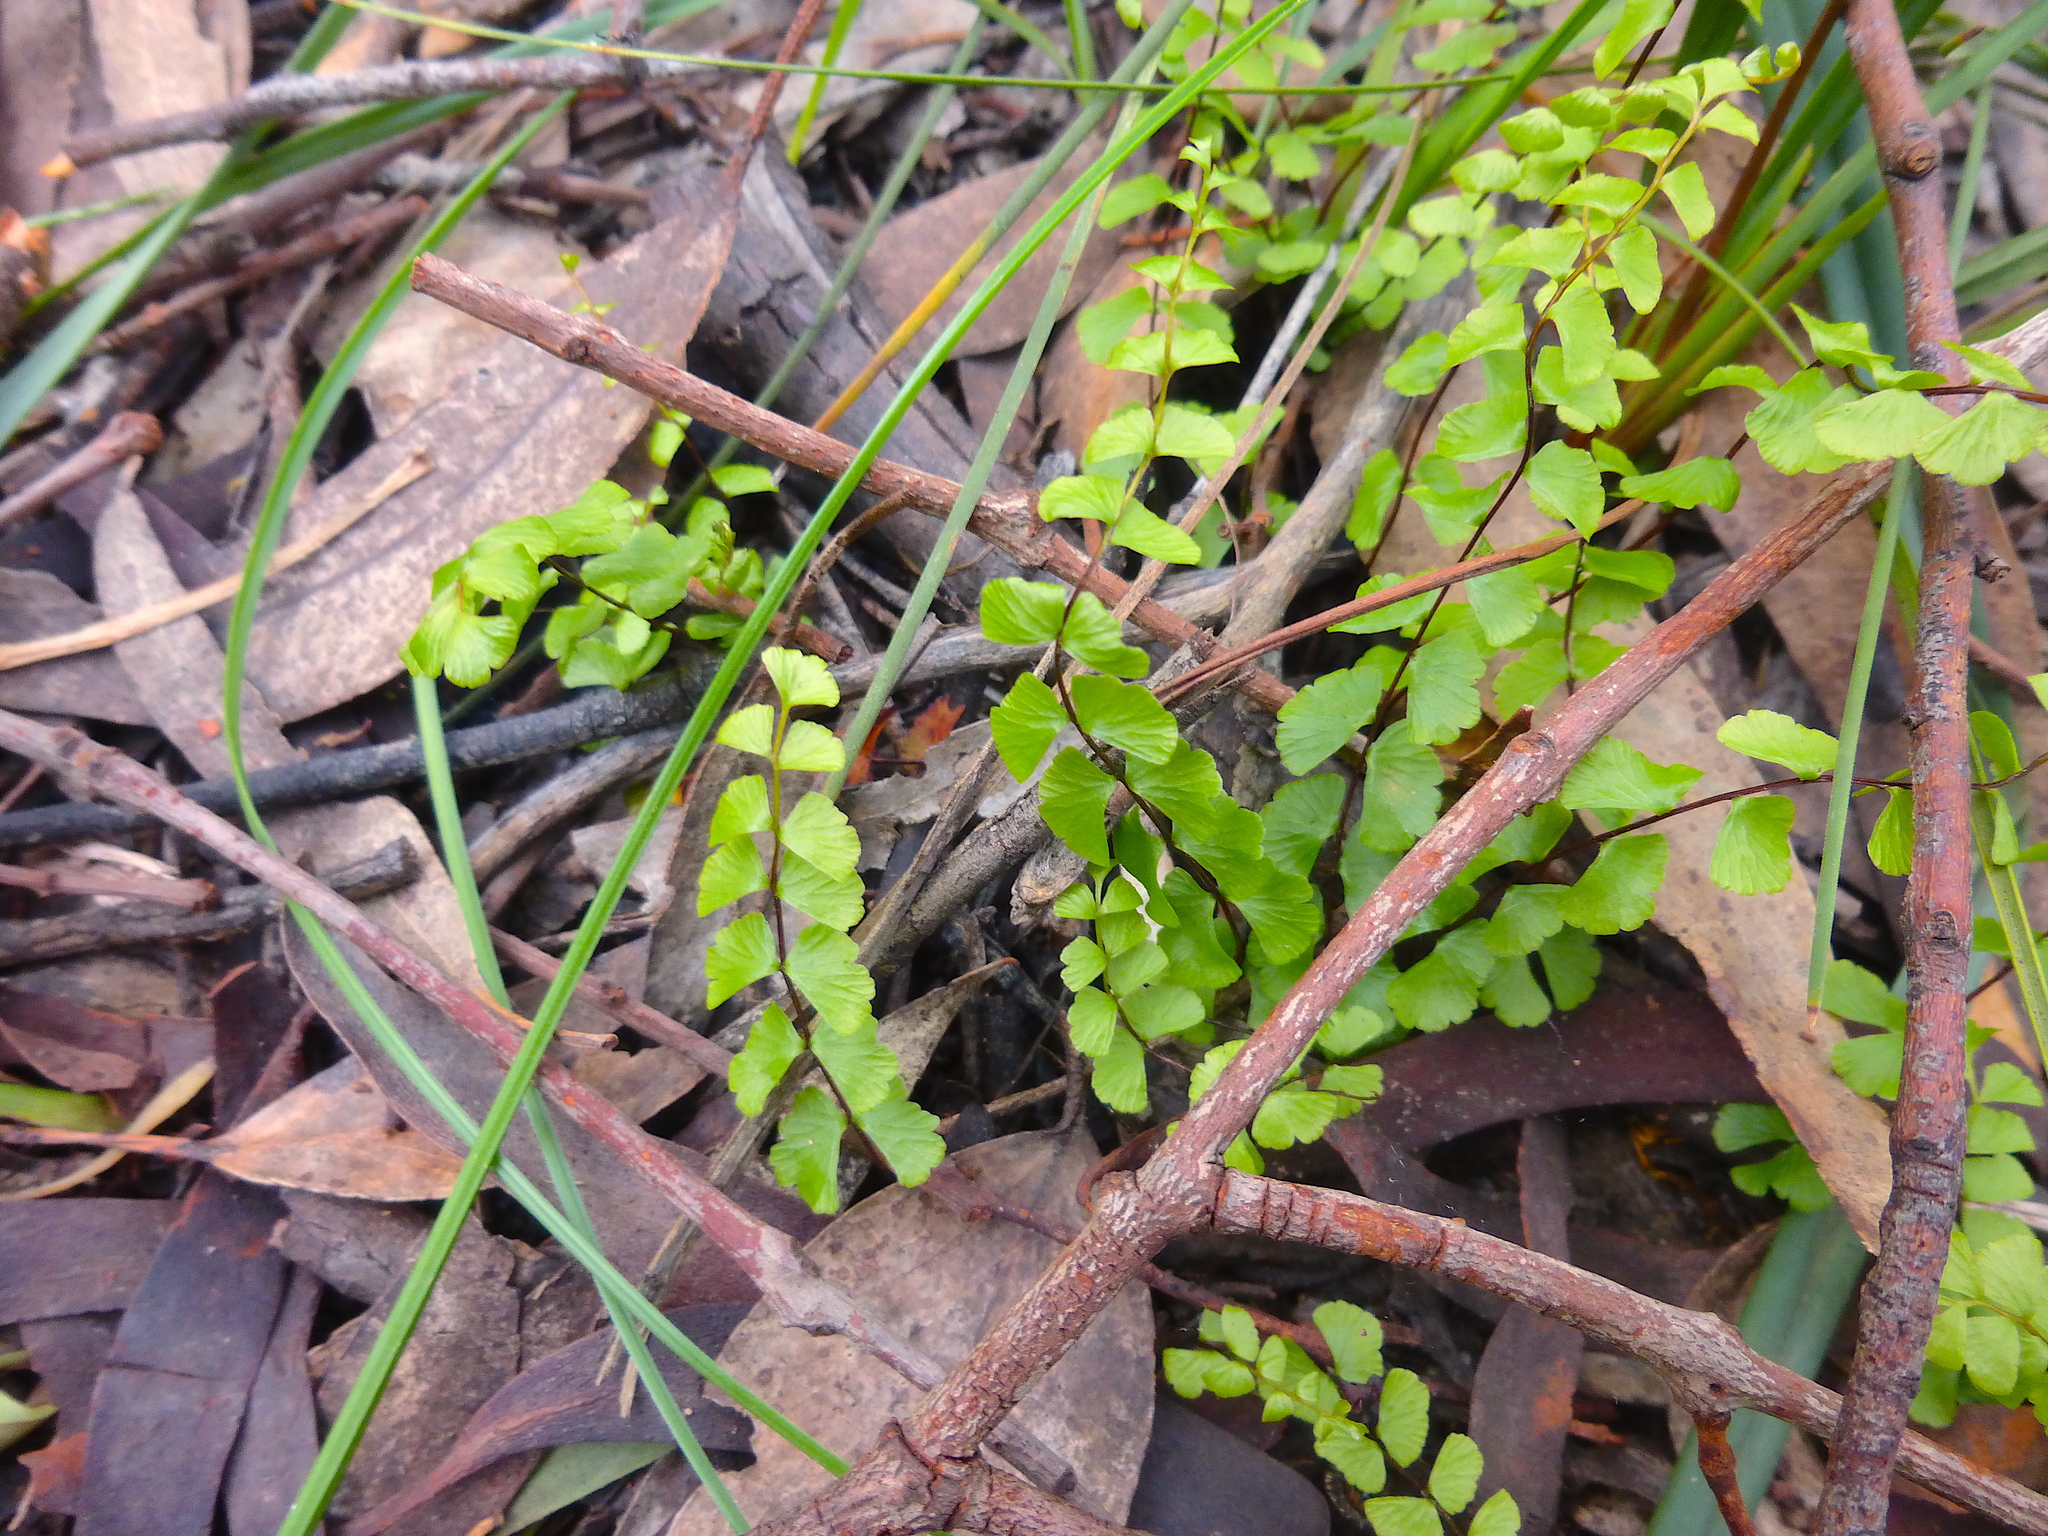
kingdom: Plantae
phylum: Tracheophyta
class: Polypodiopsida
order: Polypodiales
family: Lindsaeaceae
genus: Lindsaea
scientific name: Lindsaea linearis
